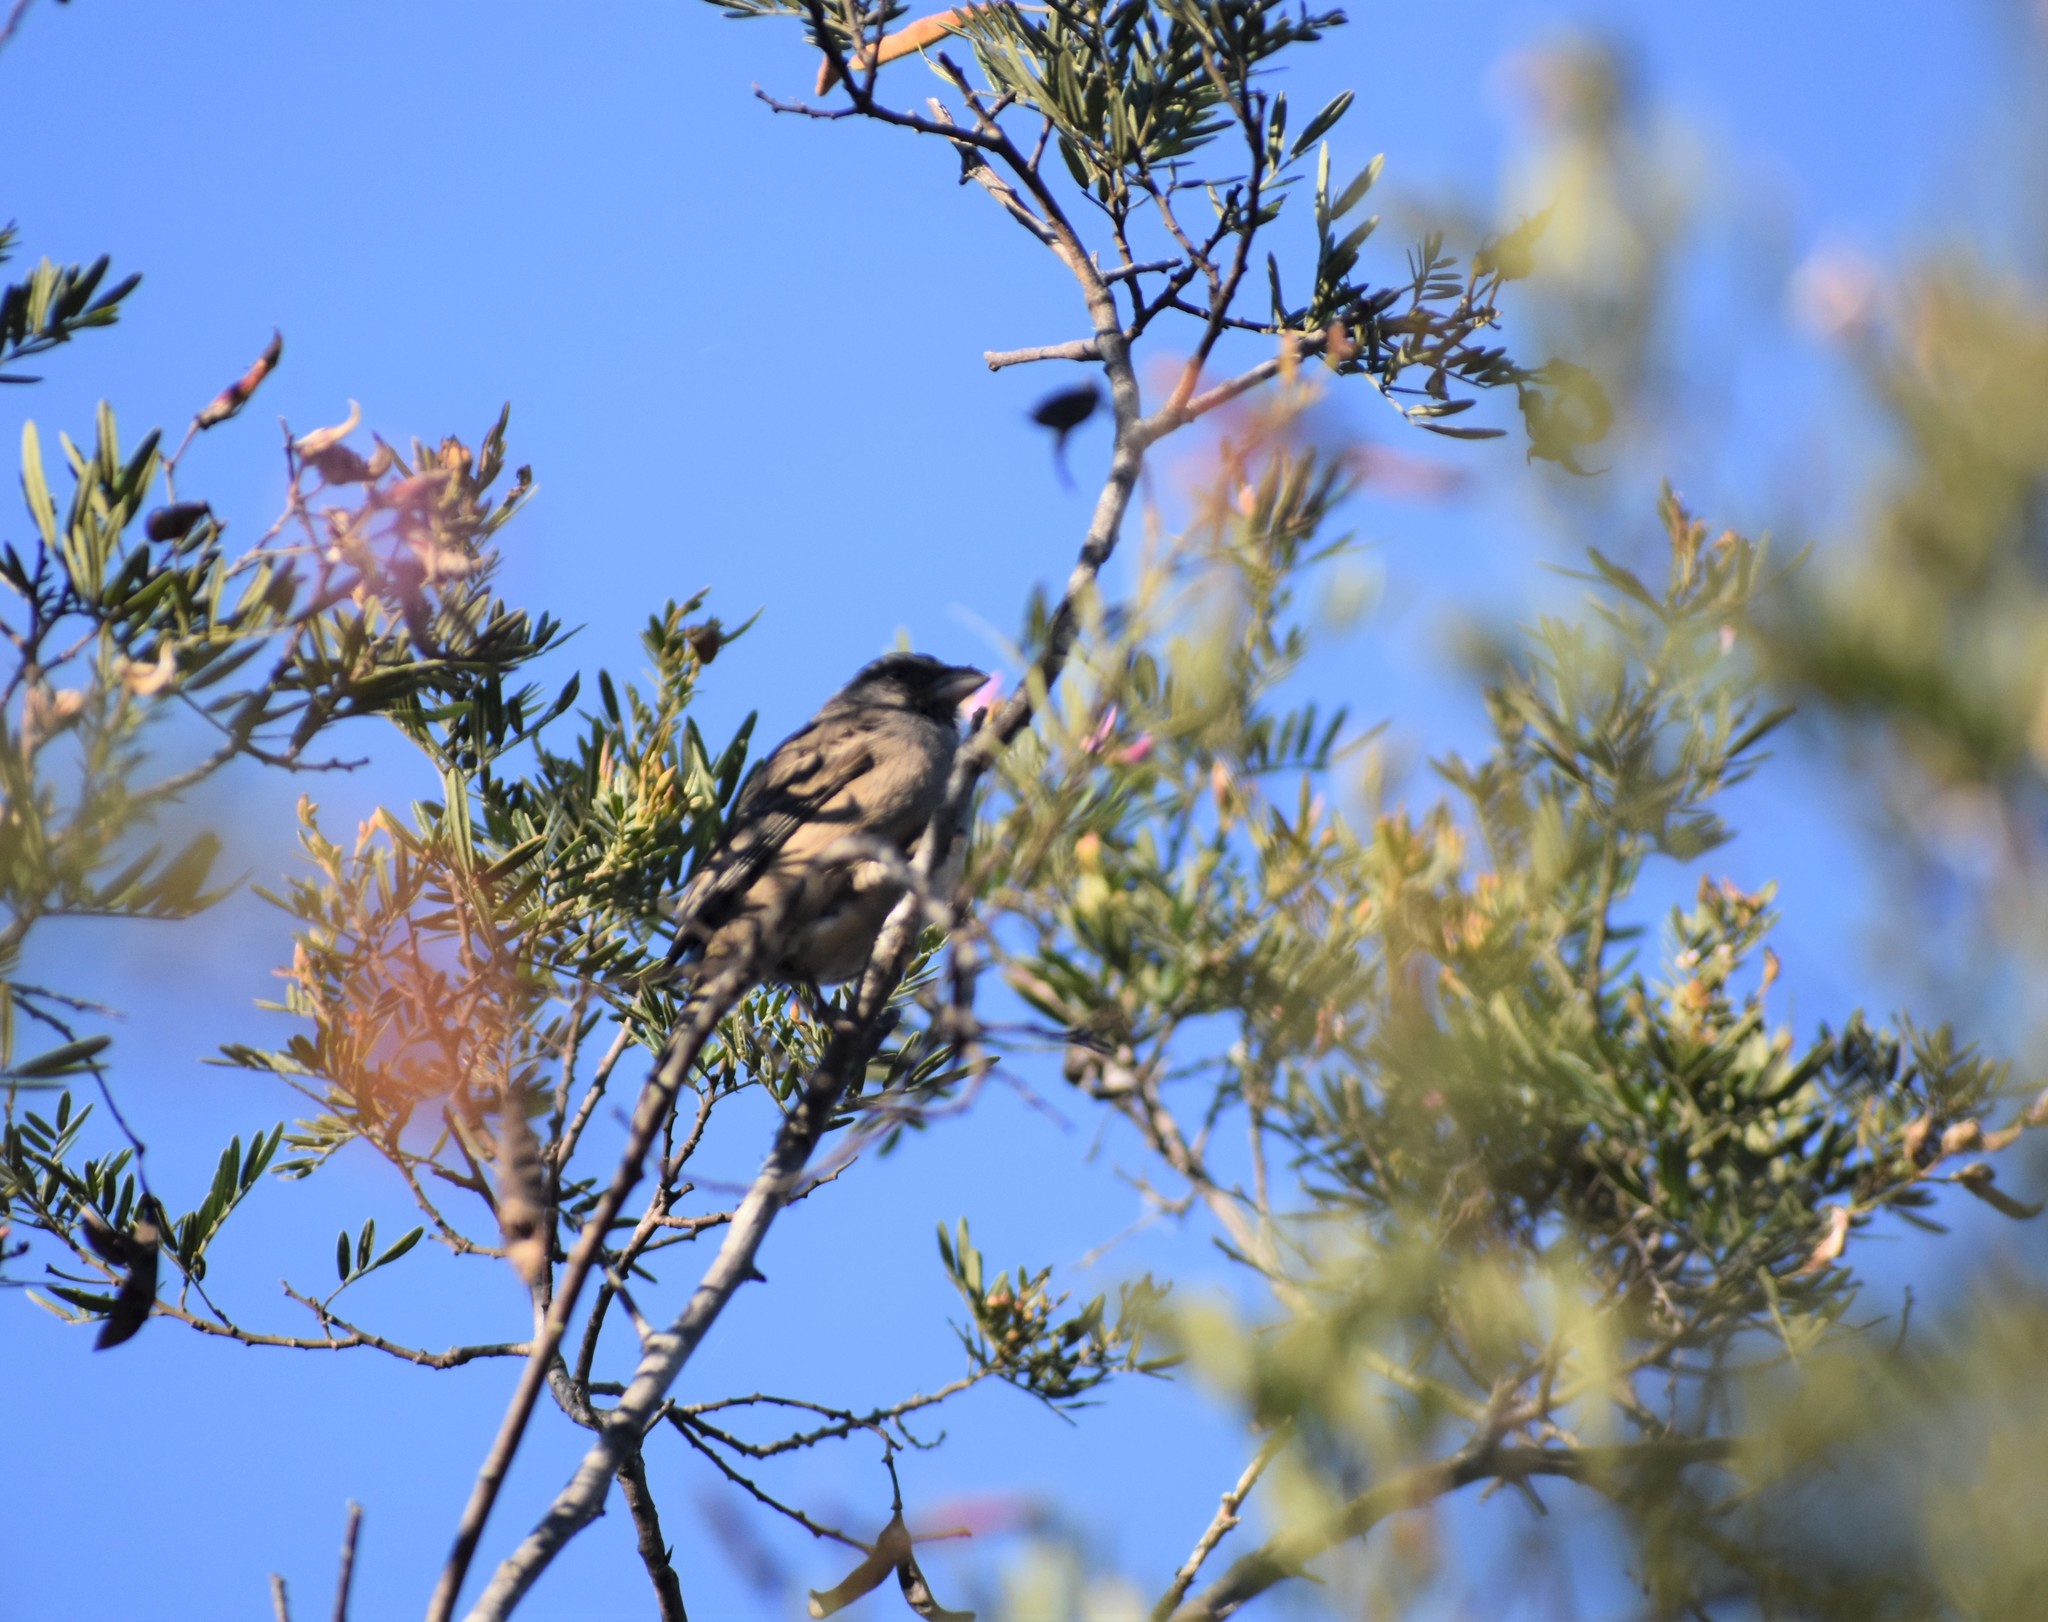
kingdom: Animalia
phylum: Chordata
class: Aves
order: Passeriformes
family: Fringillidae
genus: Crithagra
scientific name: Crithagra gularis
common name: Streaky-headed seedeater
